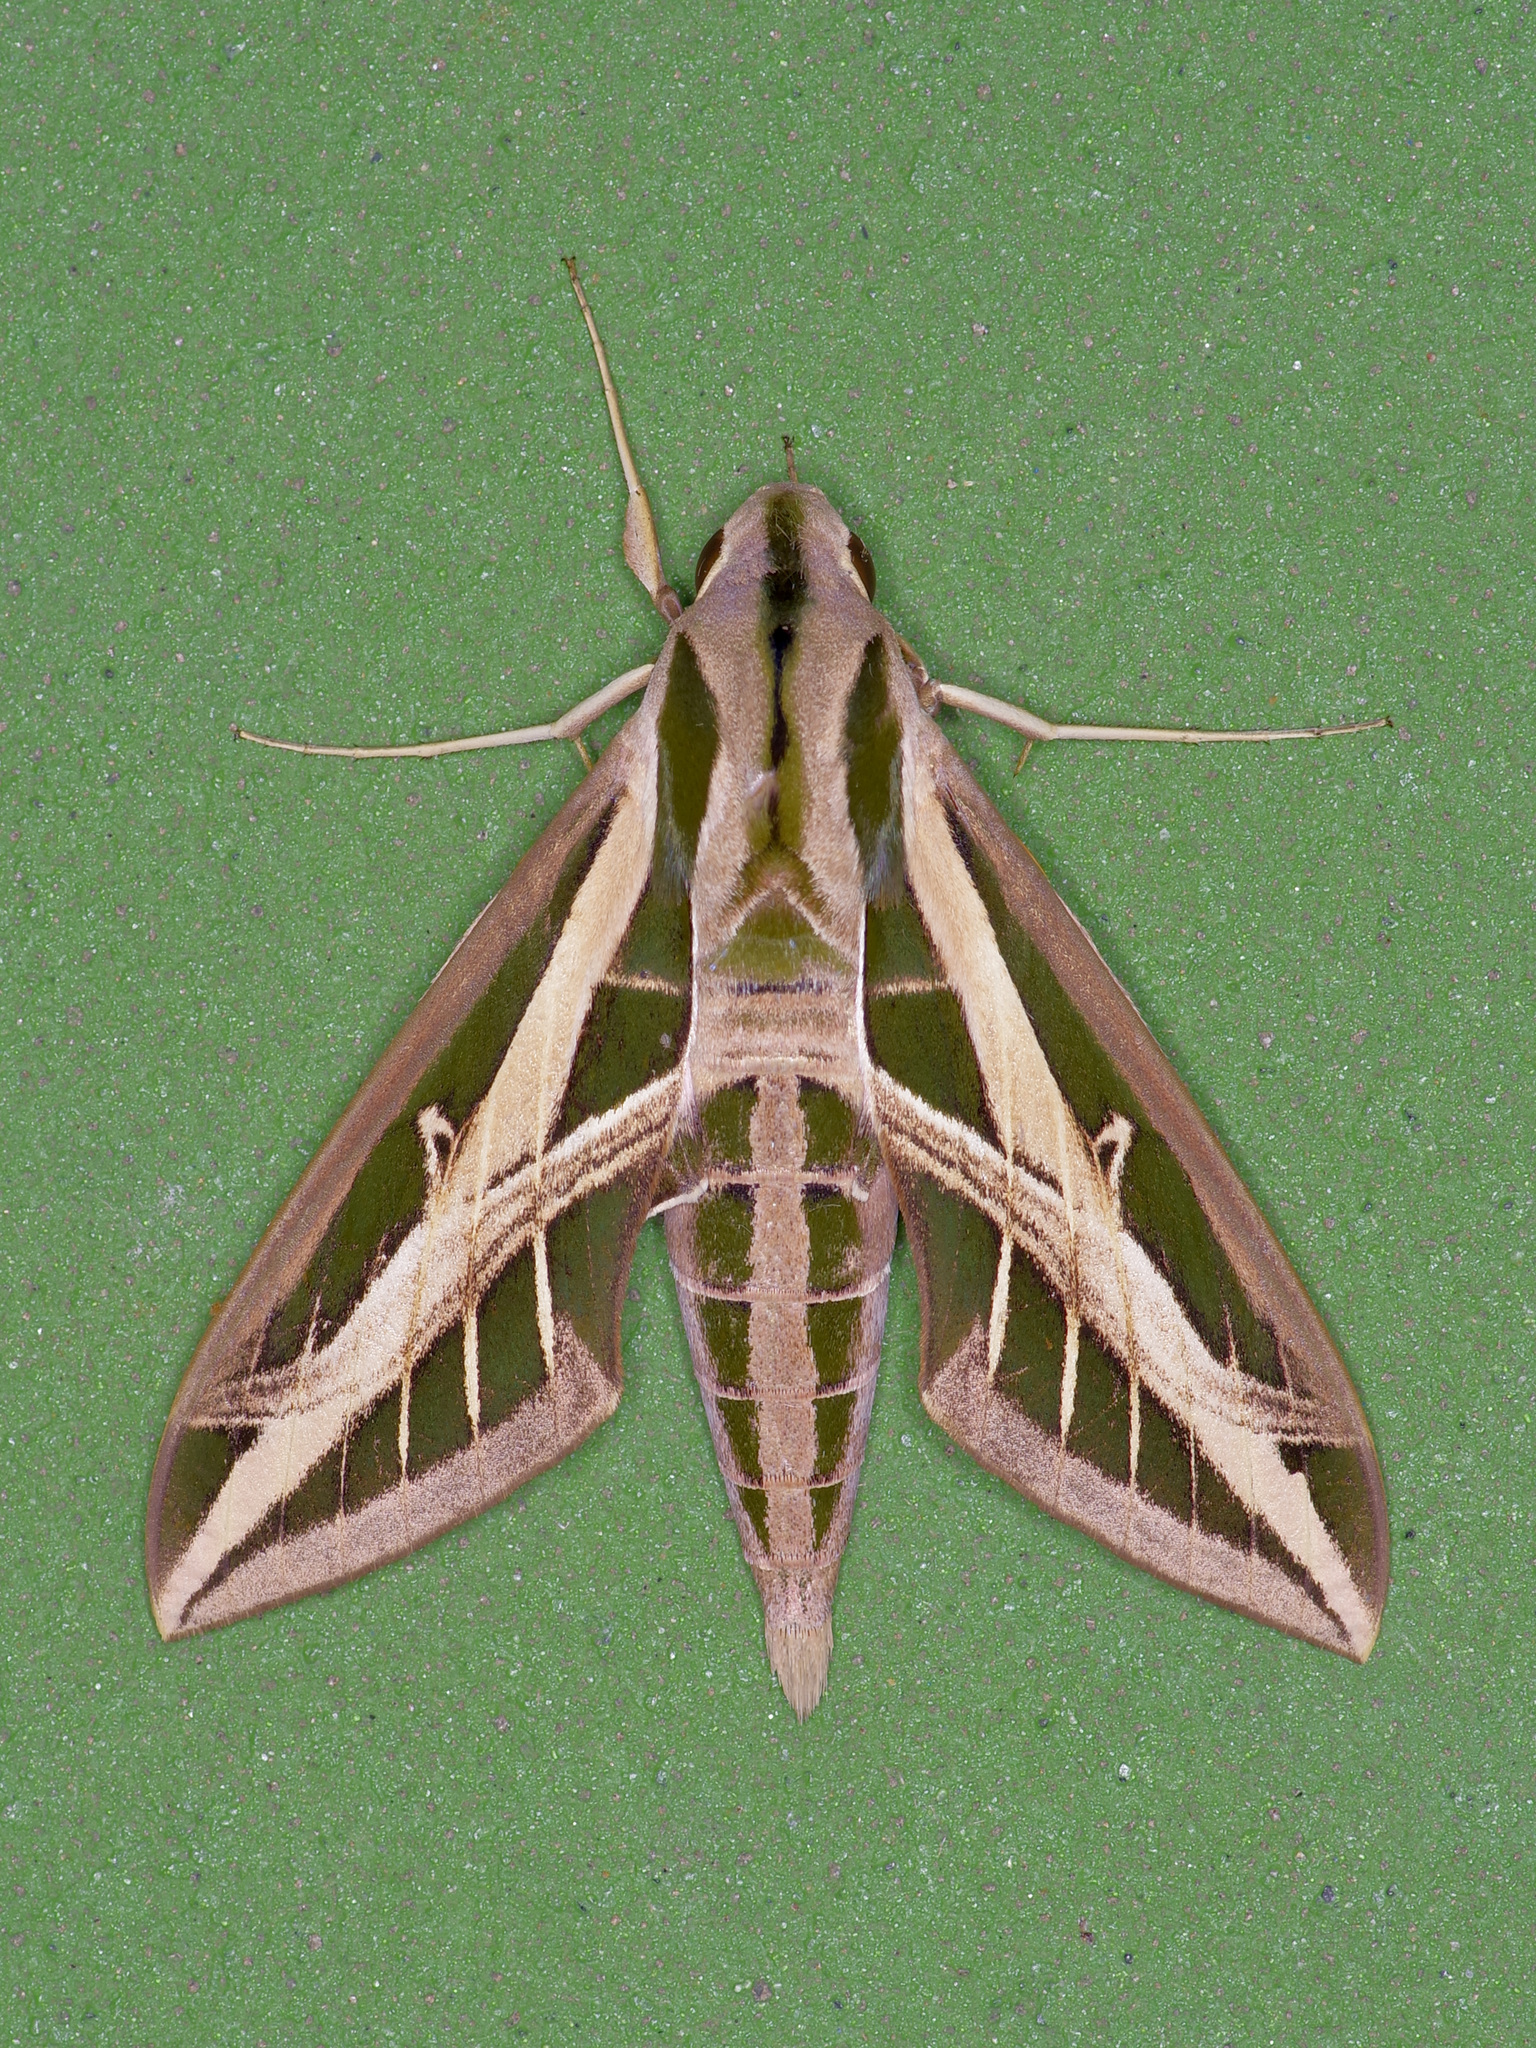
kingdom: Animalia
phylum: Arthropoda
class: Insecta
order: Lepidoptera
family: Sphingidae
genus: Eumorpha
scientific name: Eumorpha fasciatus
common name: Banded sphinx
